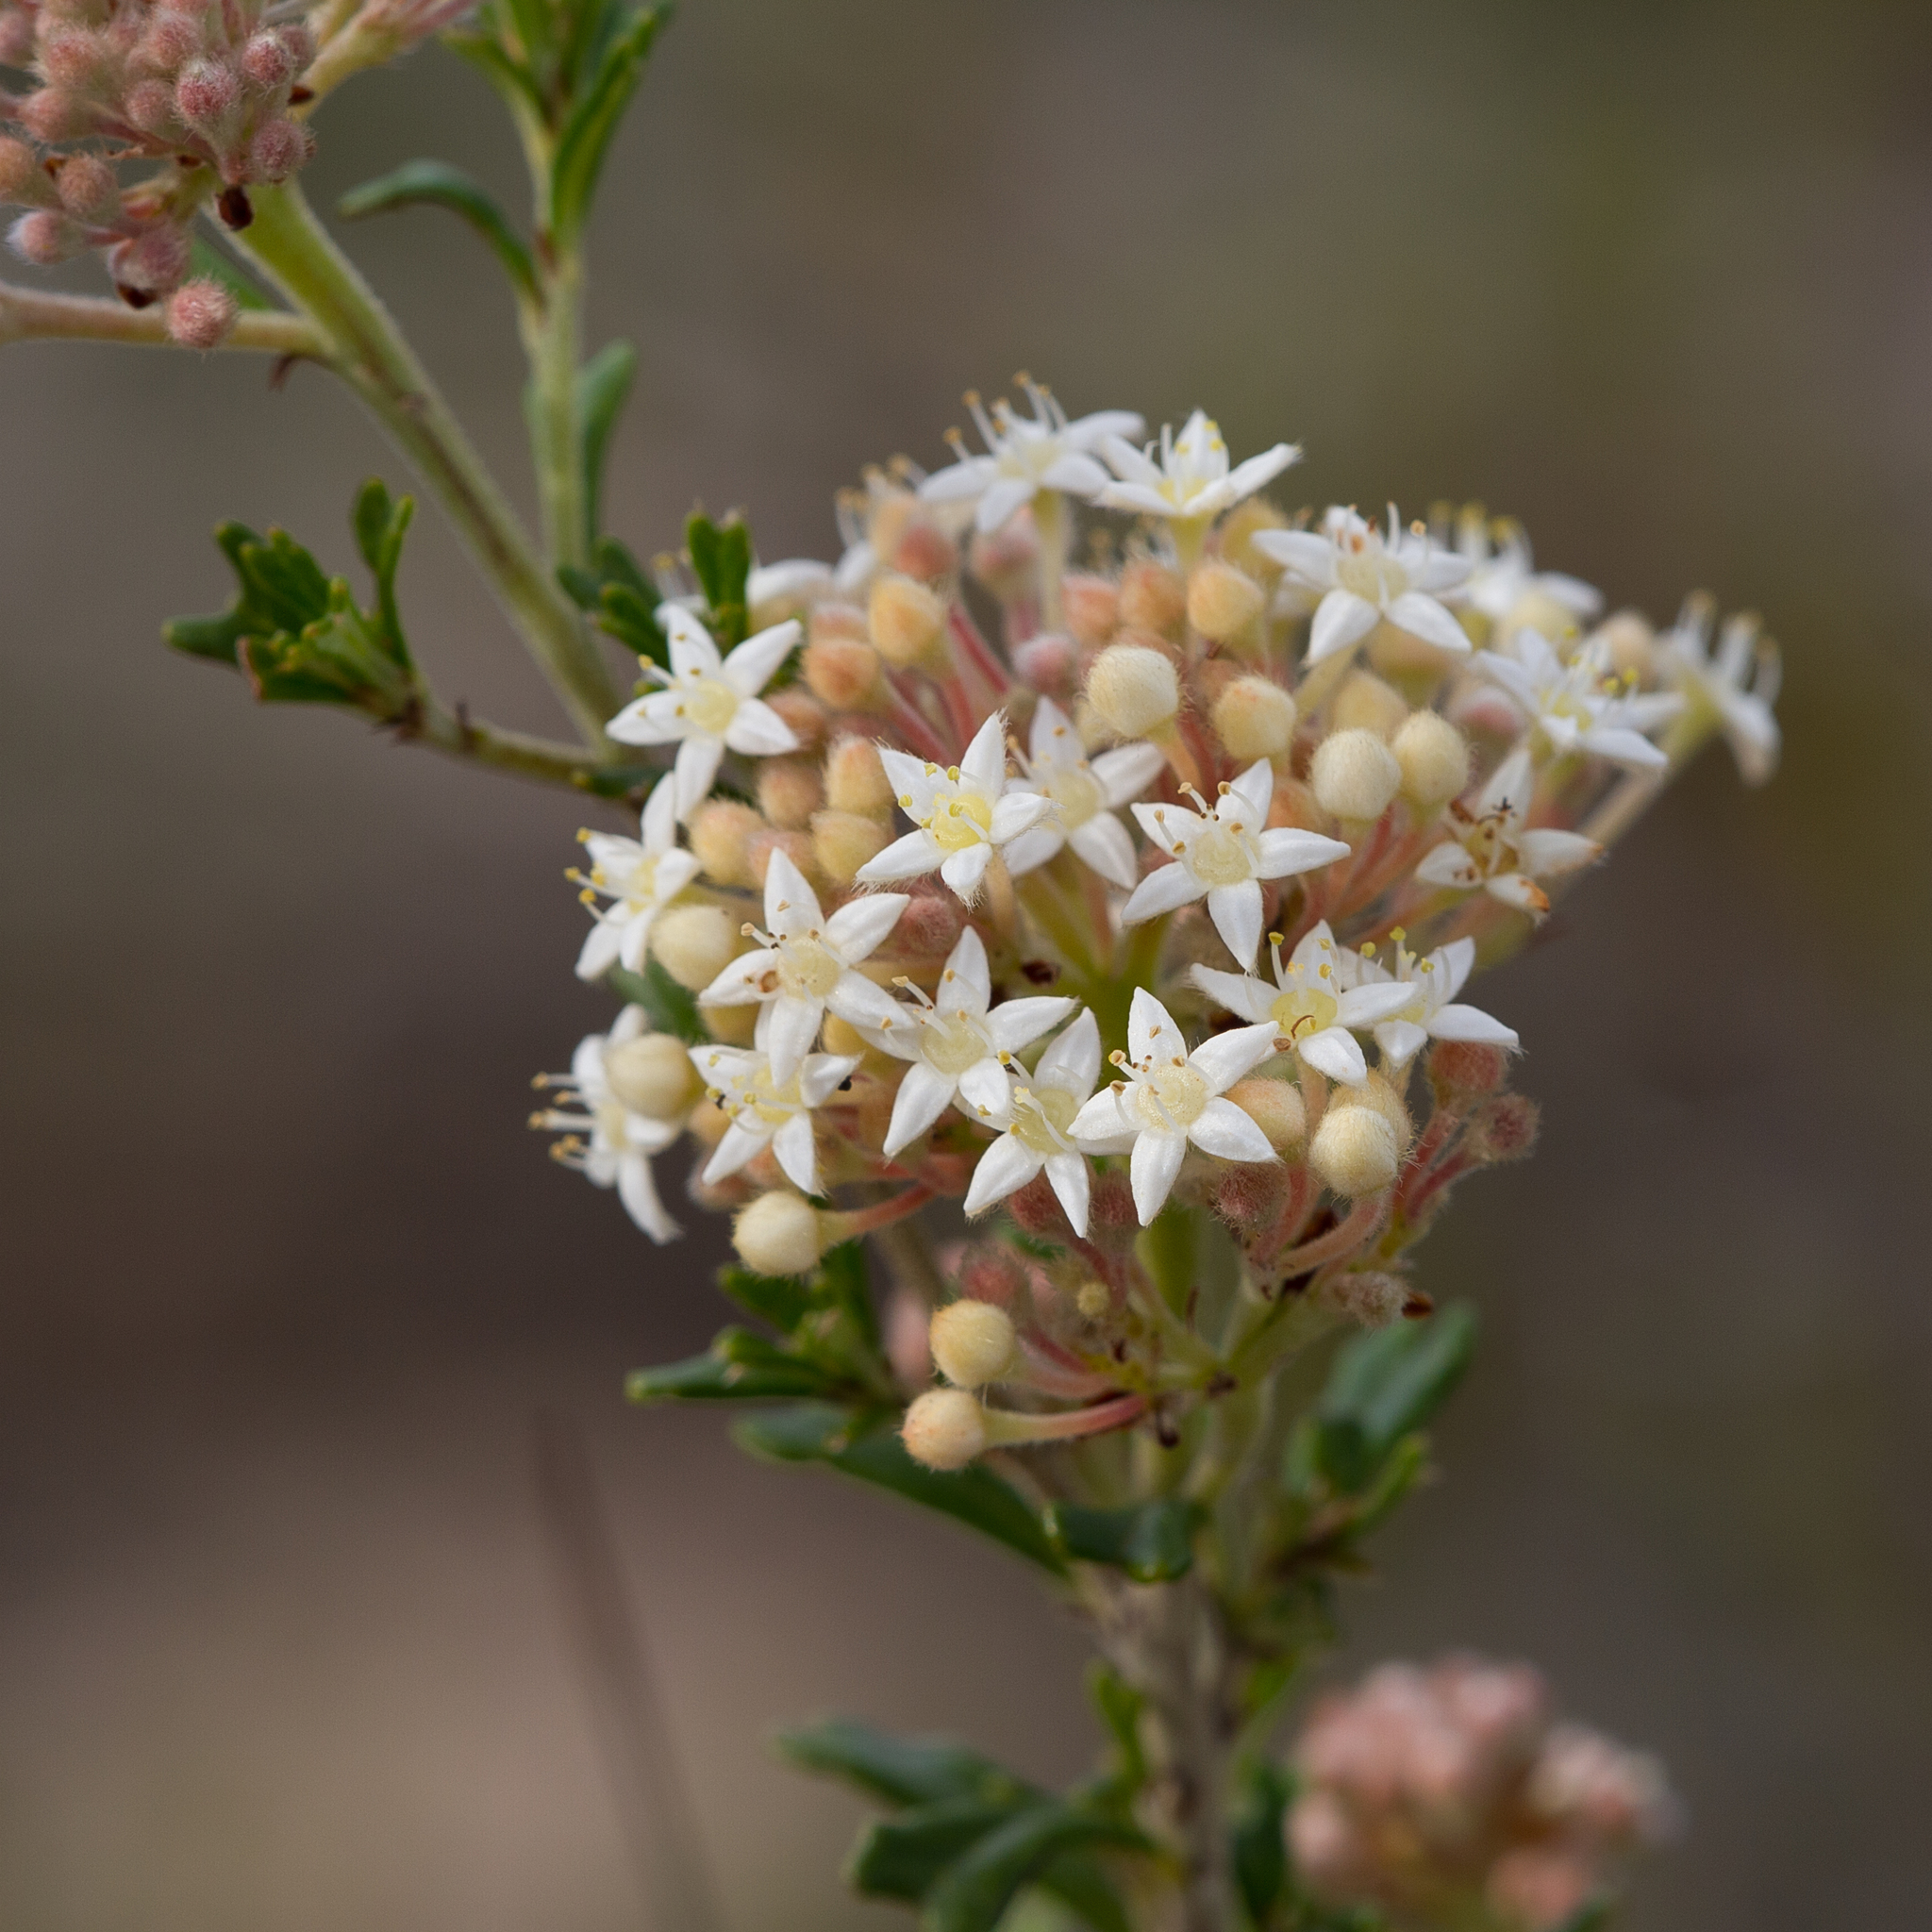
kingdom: Plantae
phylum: Tracheophyta
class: Magnoliopsida
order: Rosales
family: Rhamnaceae
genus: Pomaderris
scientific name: Pomaderris obcordata
